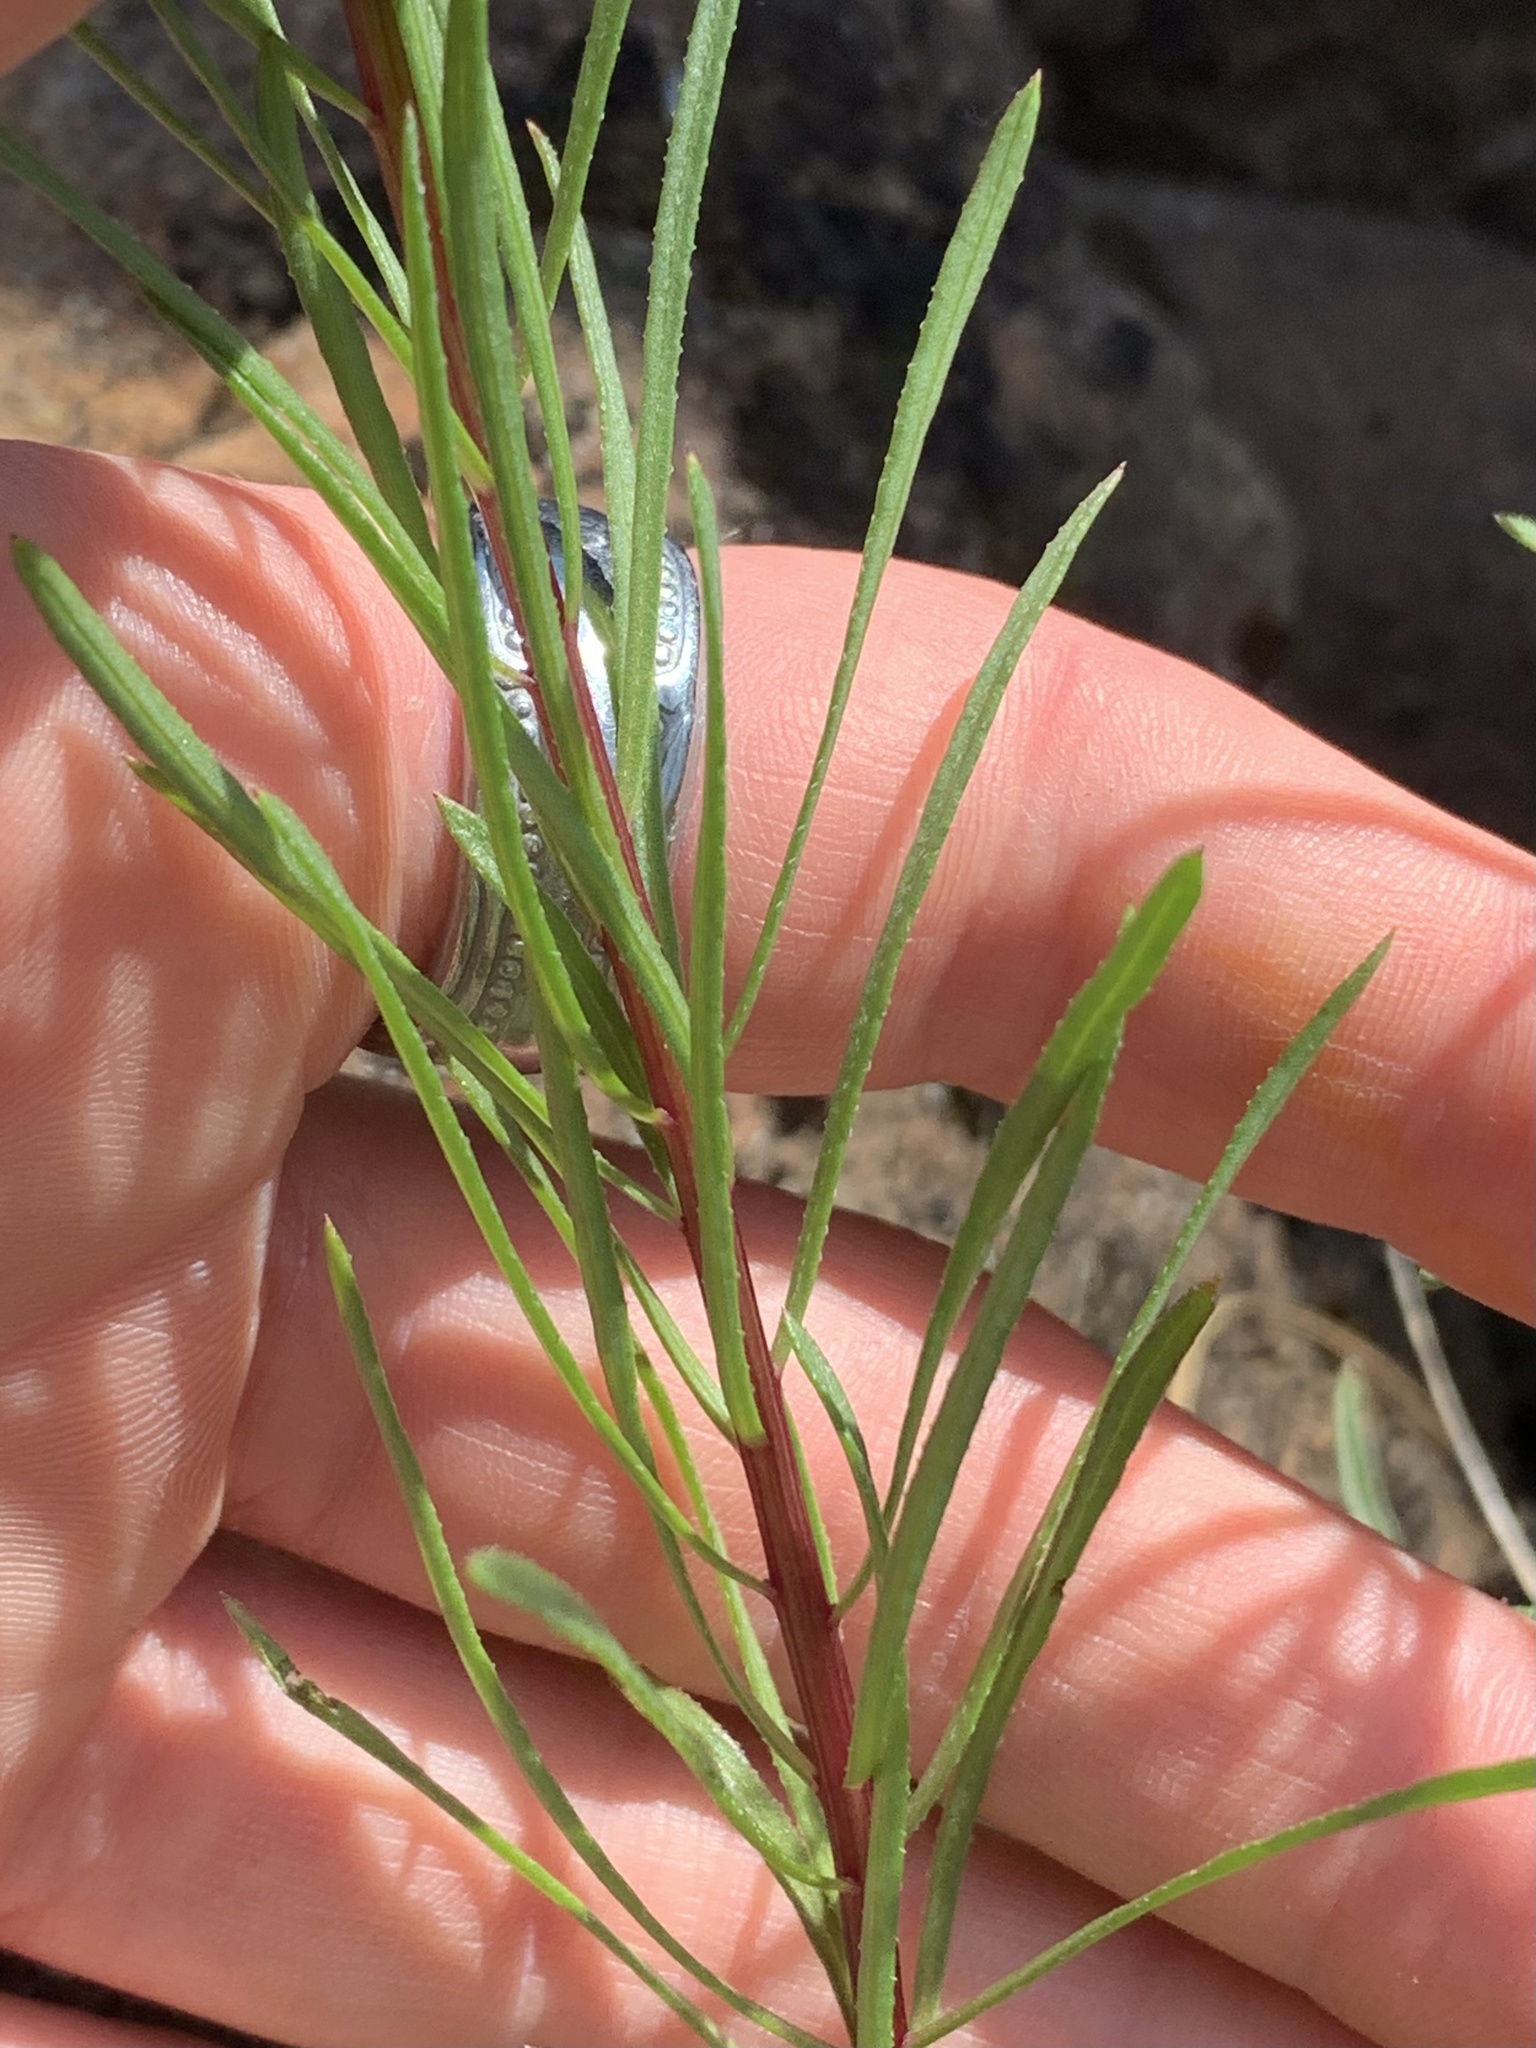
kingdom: Plantae
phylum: Tracheophyta
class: Magnoliopsida
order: Asterales
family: Asteraceae
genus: Erigeron
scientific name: Erigeron foliosus
